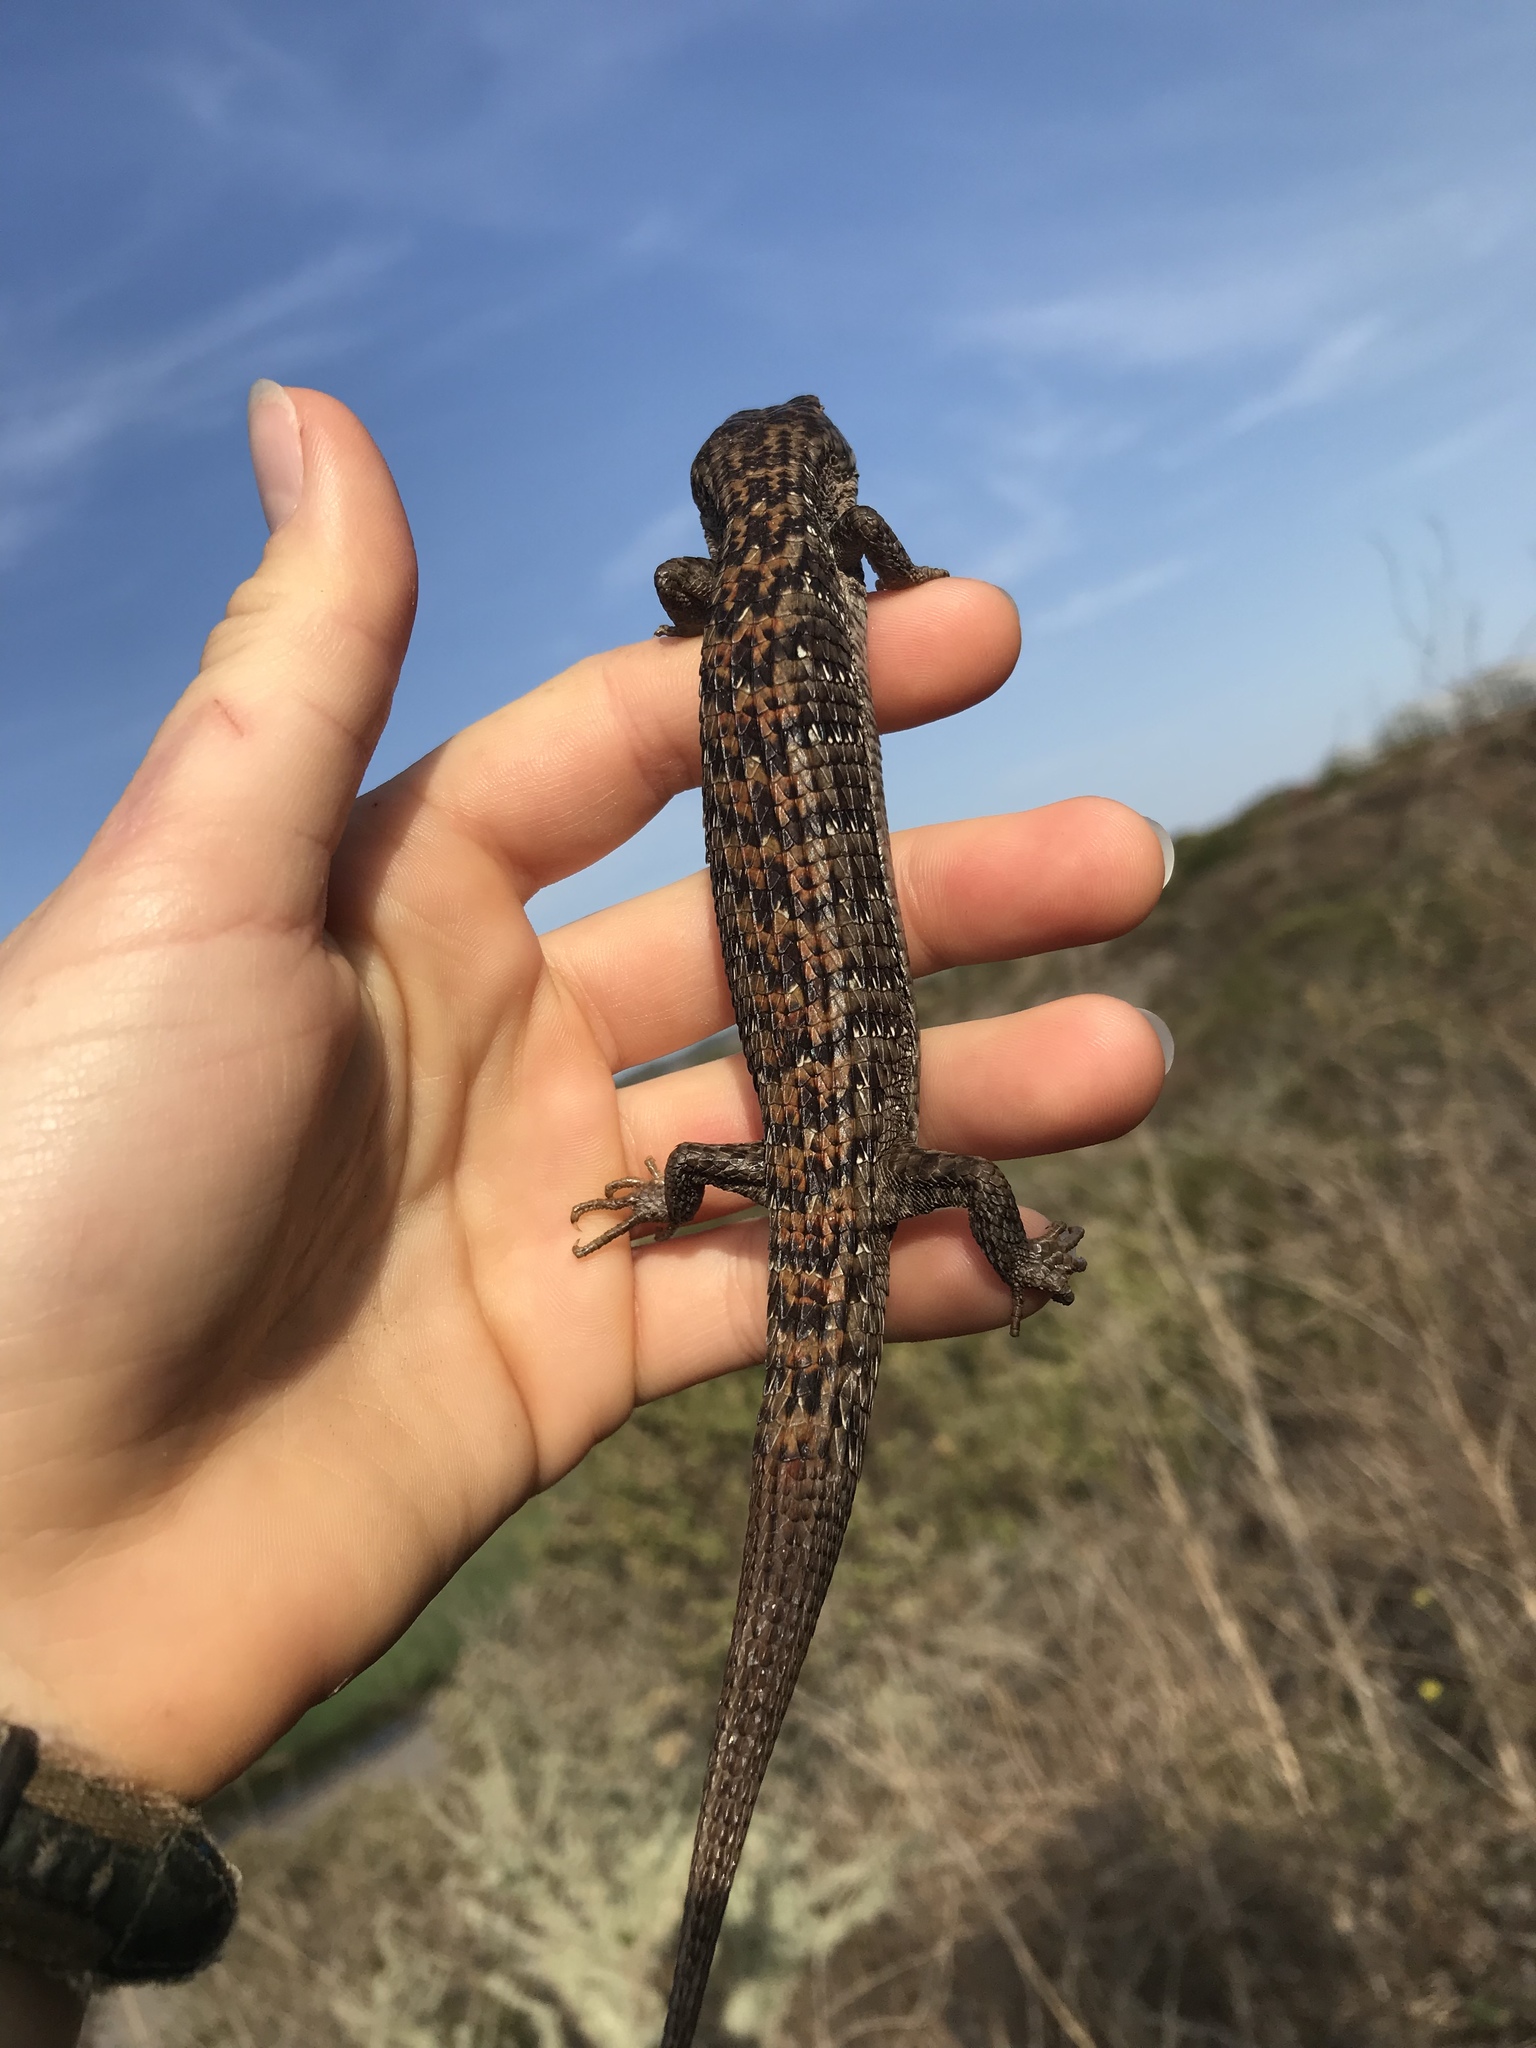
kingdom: Animalia
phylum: Chordata
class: Squamata
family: Anguidae
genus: Elgaria
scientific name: Elgaria multicarinata
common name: Southern alligator lizard
